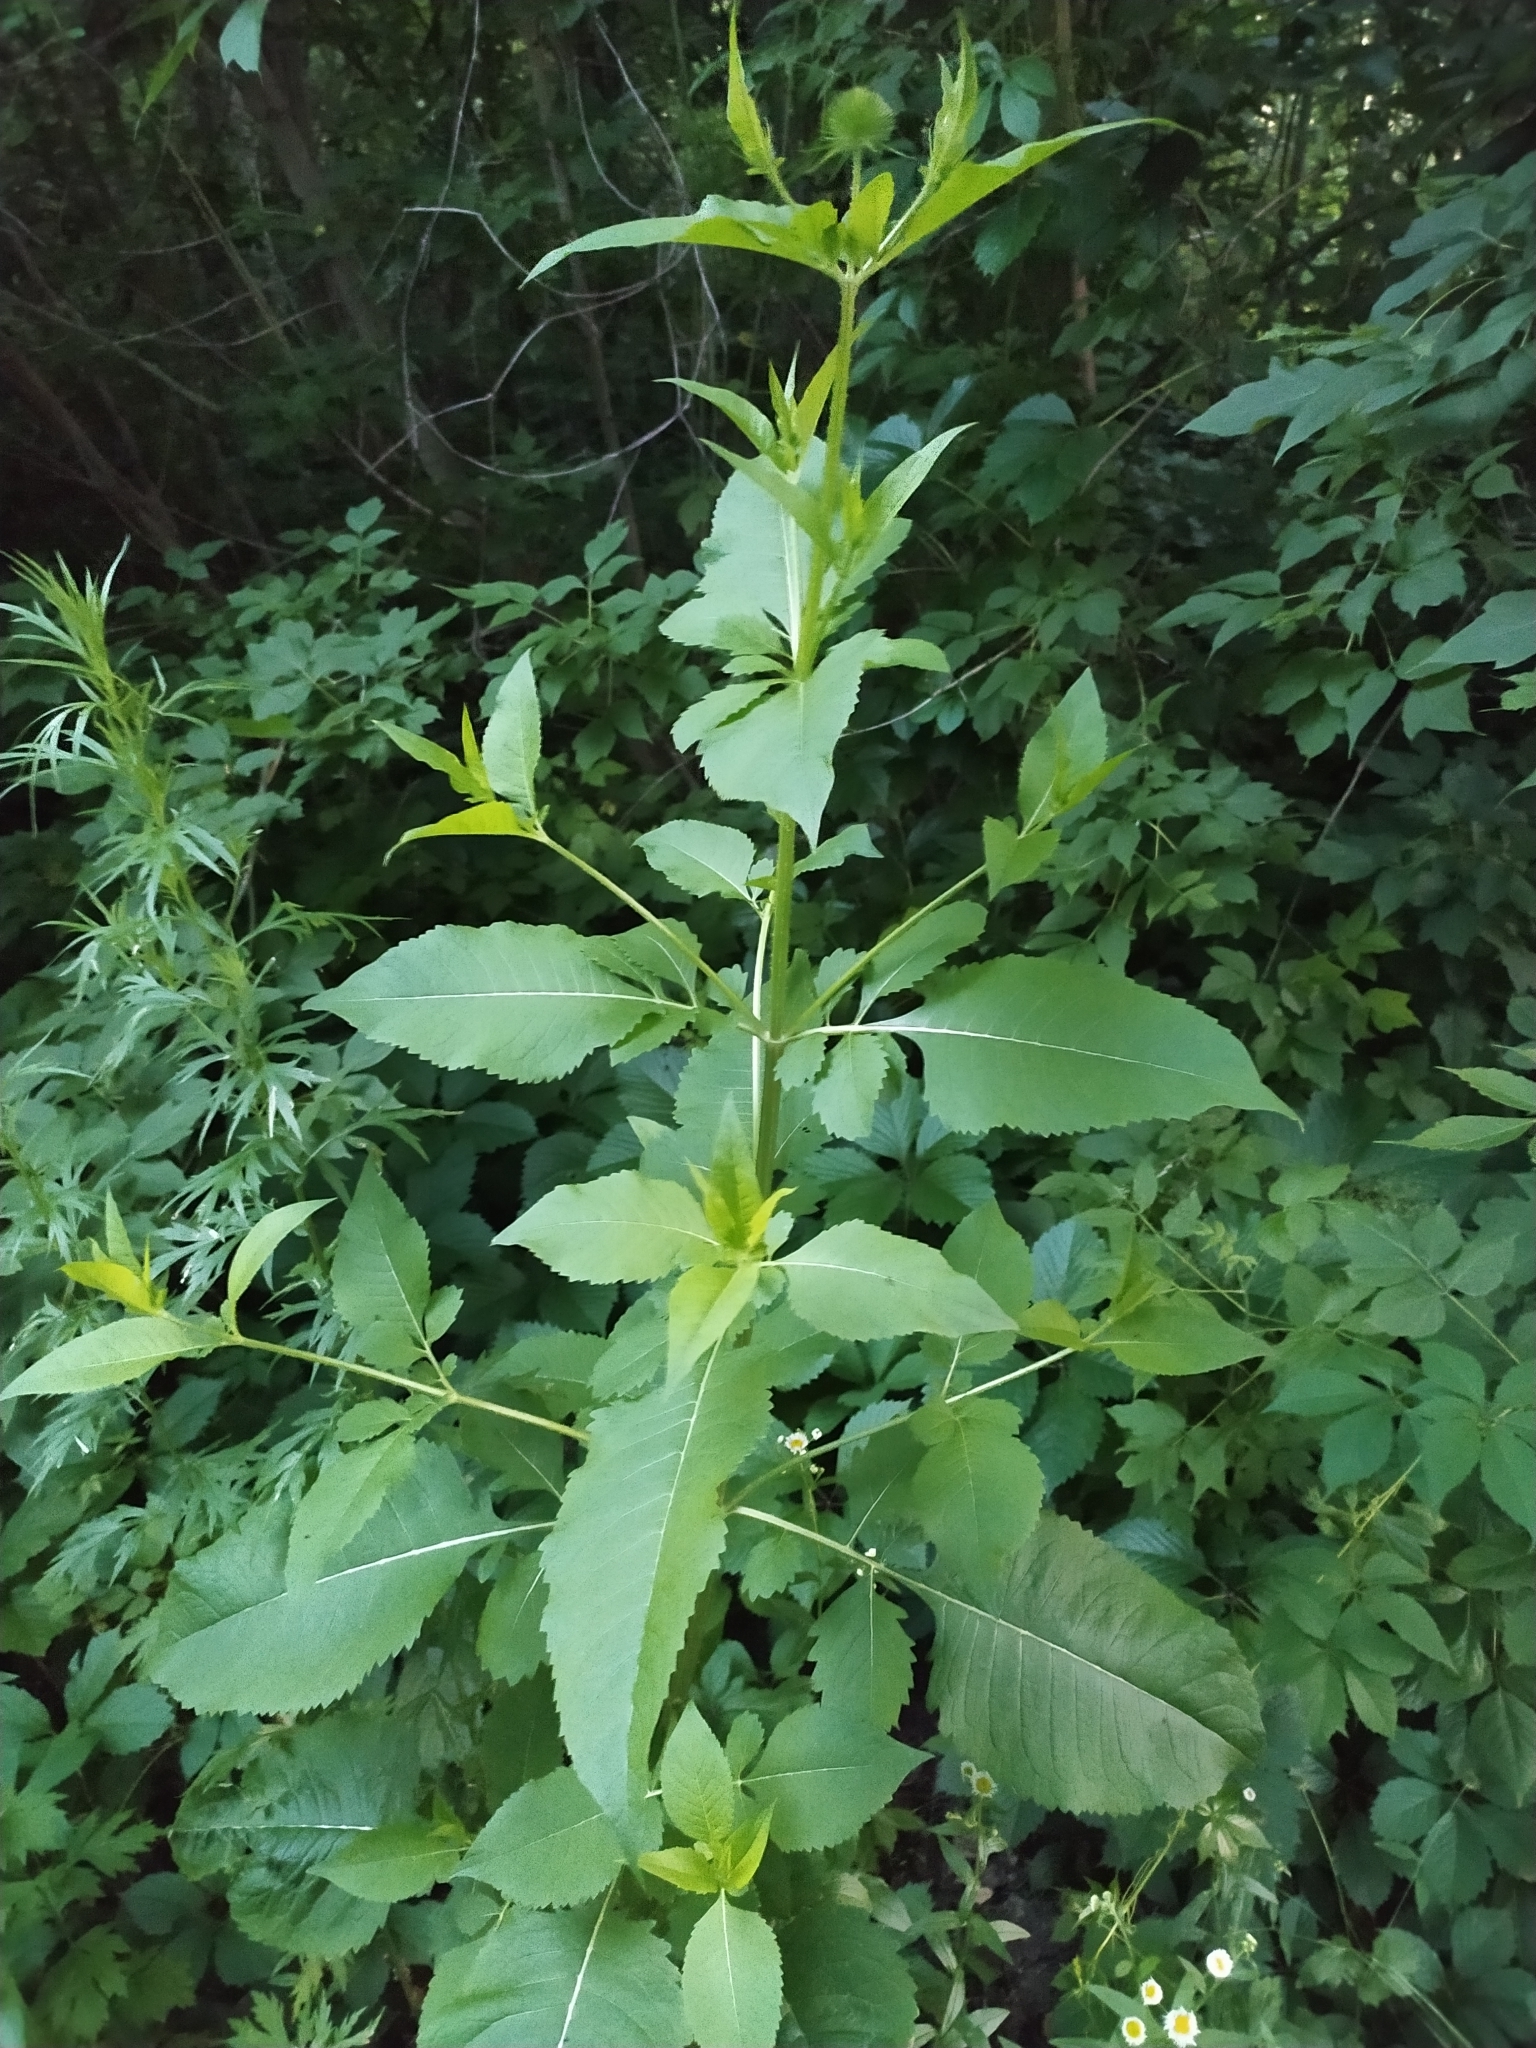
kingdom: Plantae
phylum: Tracheophyta
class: Magnoliopsida
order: Dipsacales
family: Caprifoliaceae
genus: Dipsacus
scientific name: Dipsacus strigosus
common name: Yellow-flowered teasel
